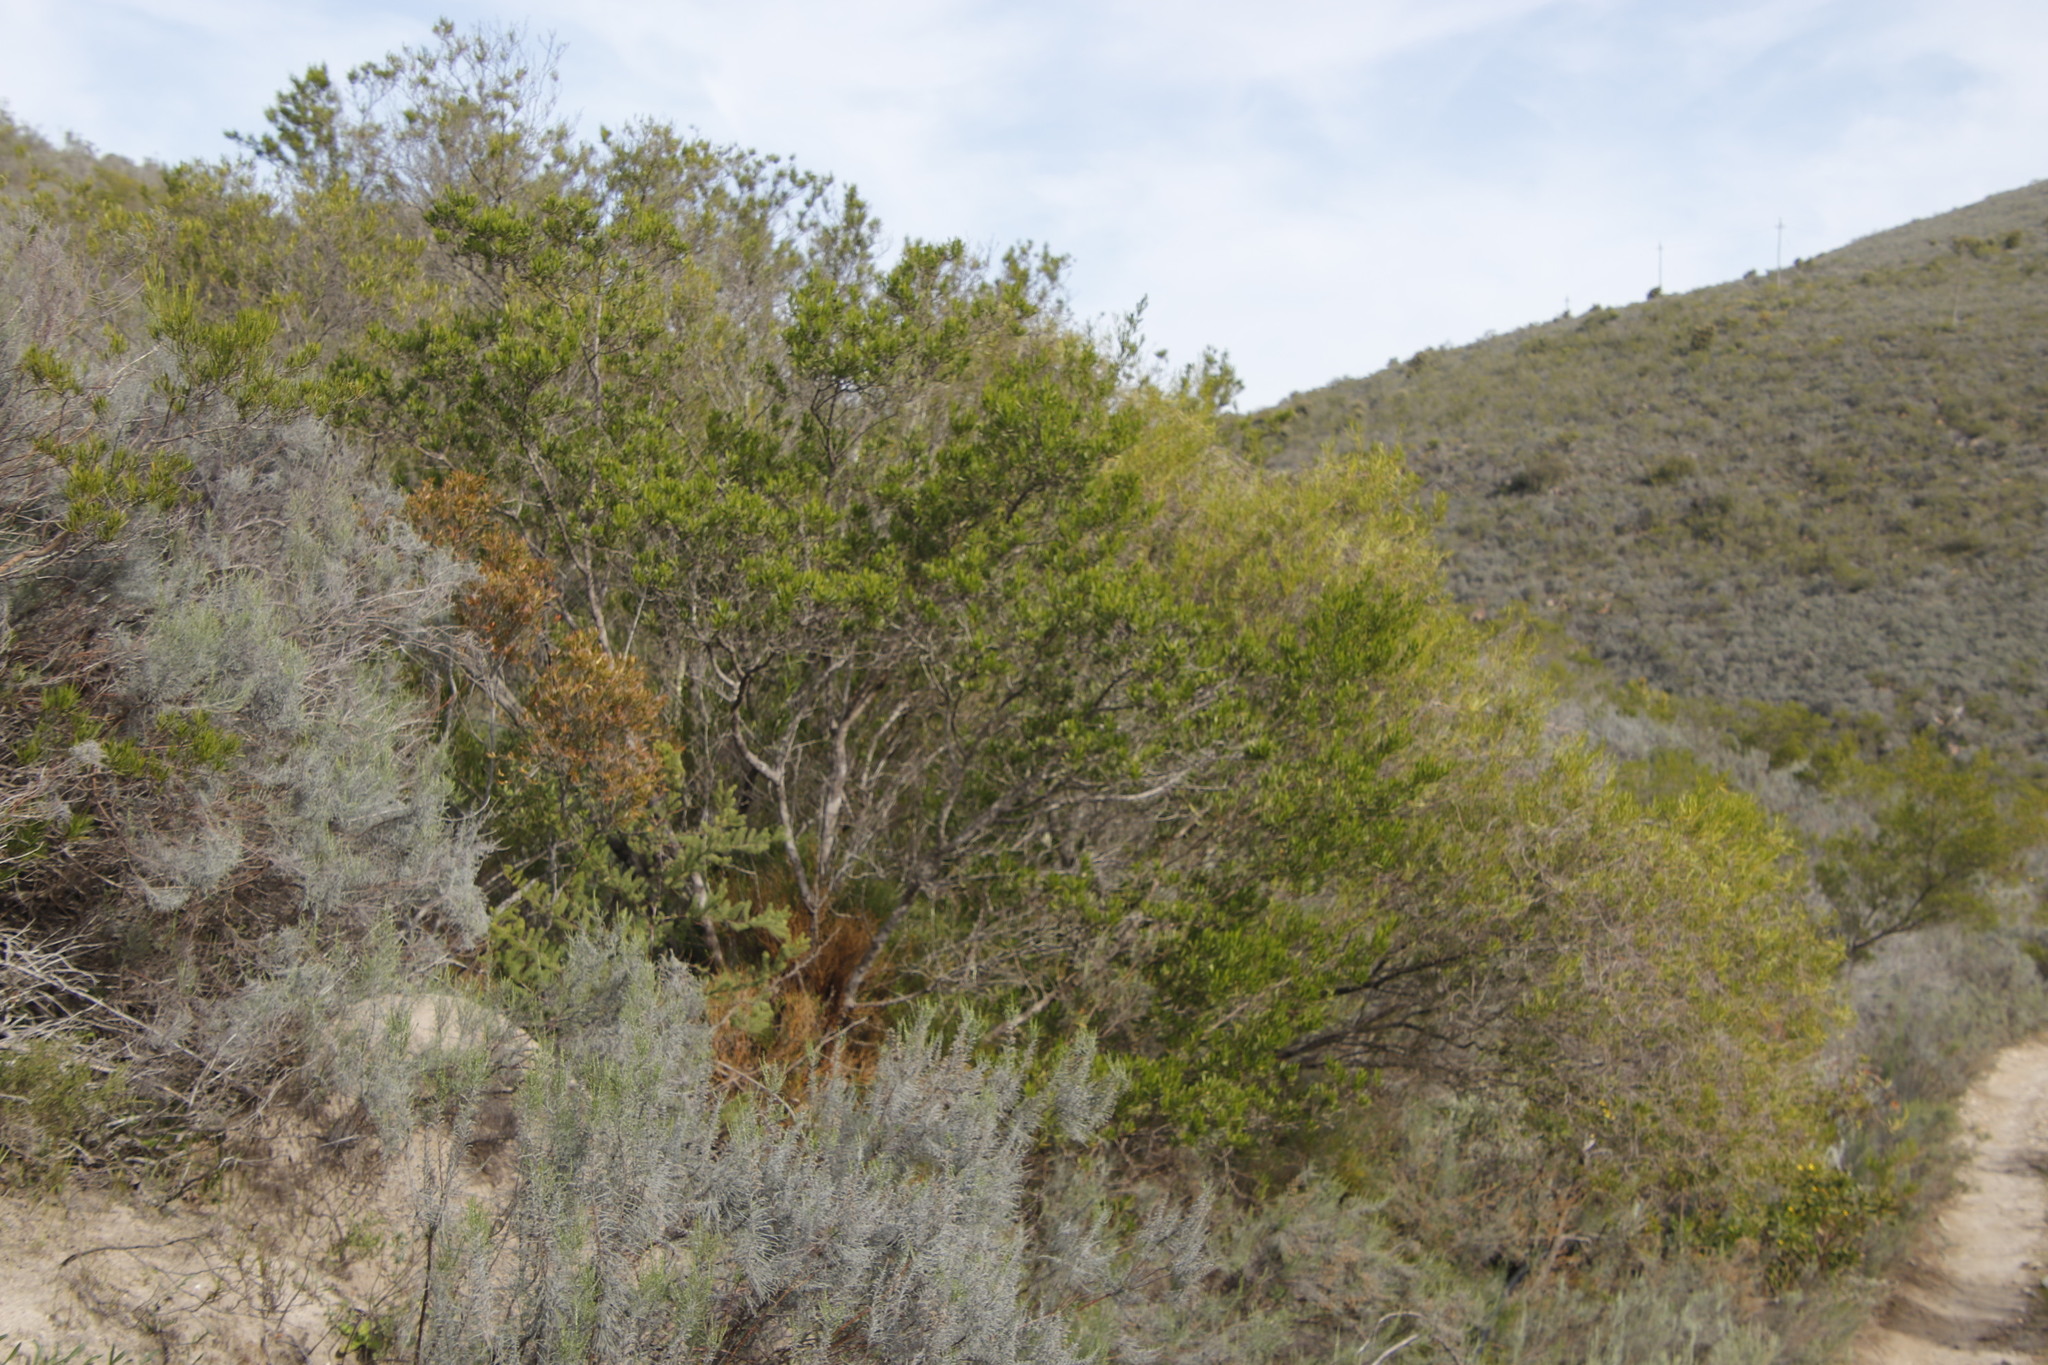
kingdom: Plantae
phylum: Tracheophyta
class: Magnoliopsida
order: Sapindales
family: Sapindaceae
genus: Dodonaea
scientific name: Dodonaea viscosa
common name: Hopbush
